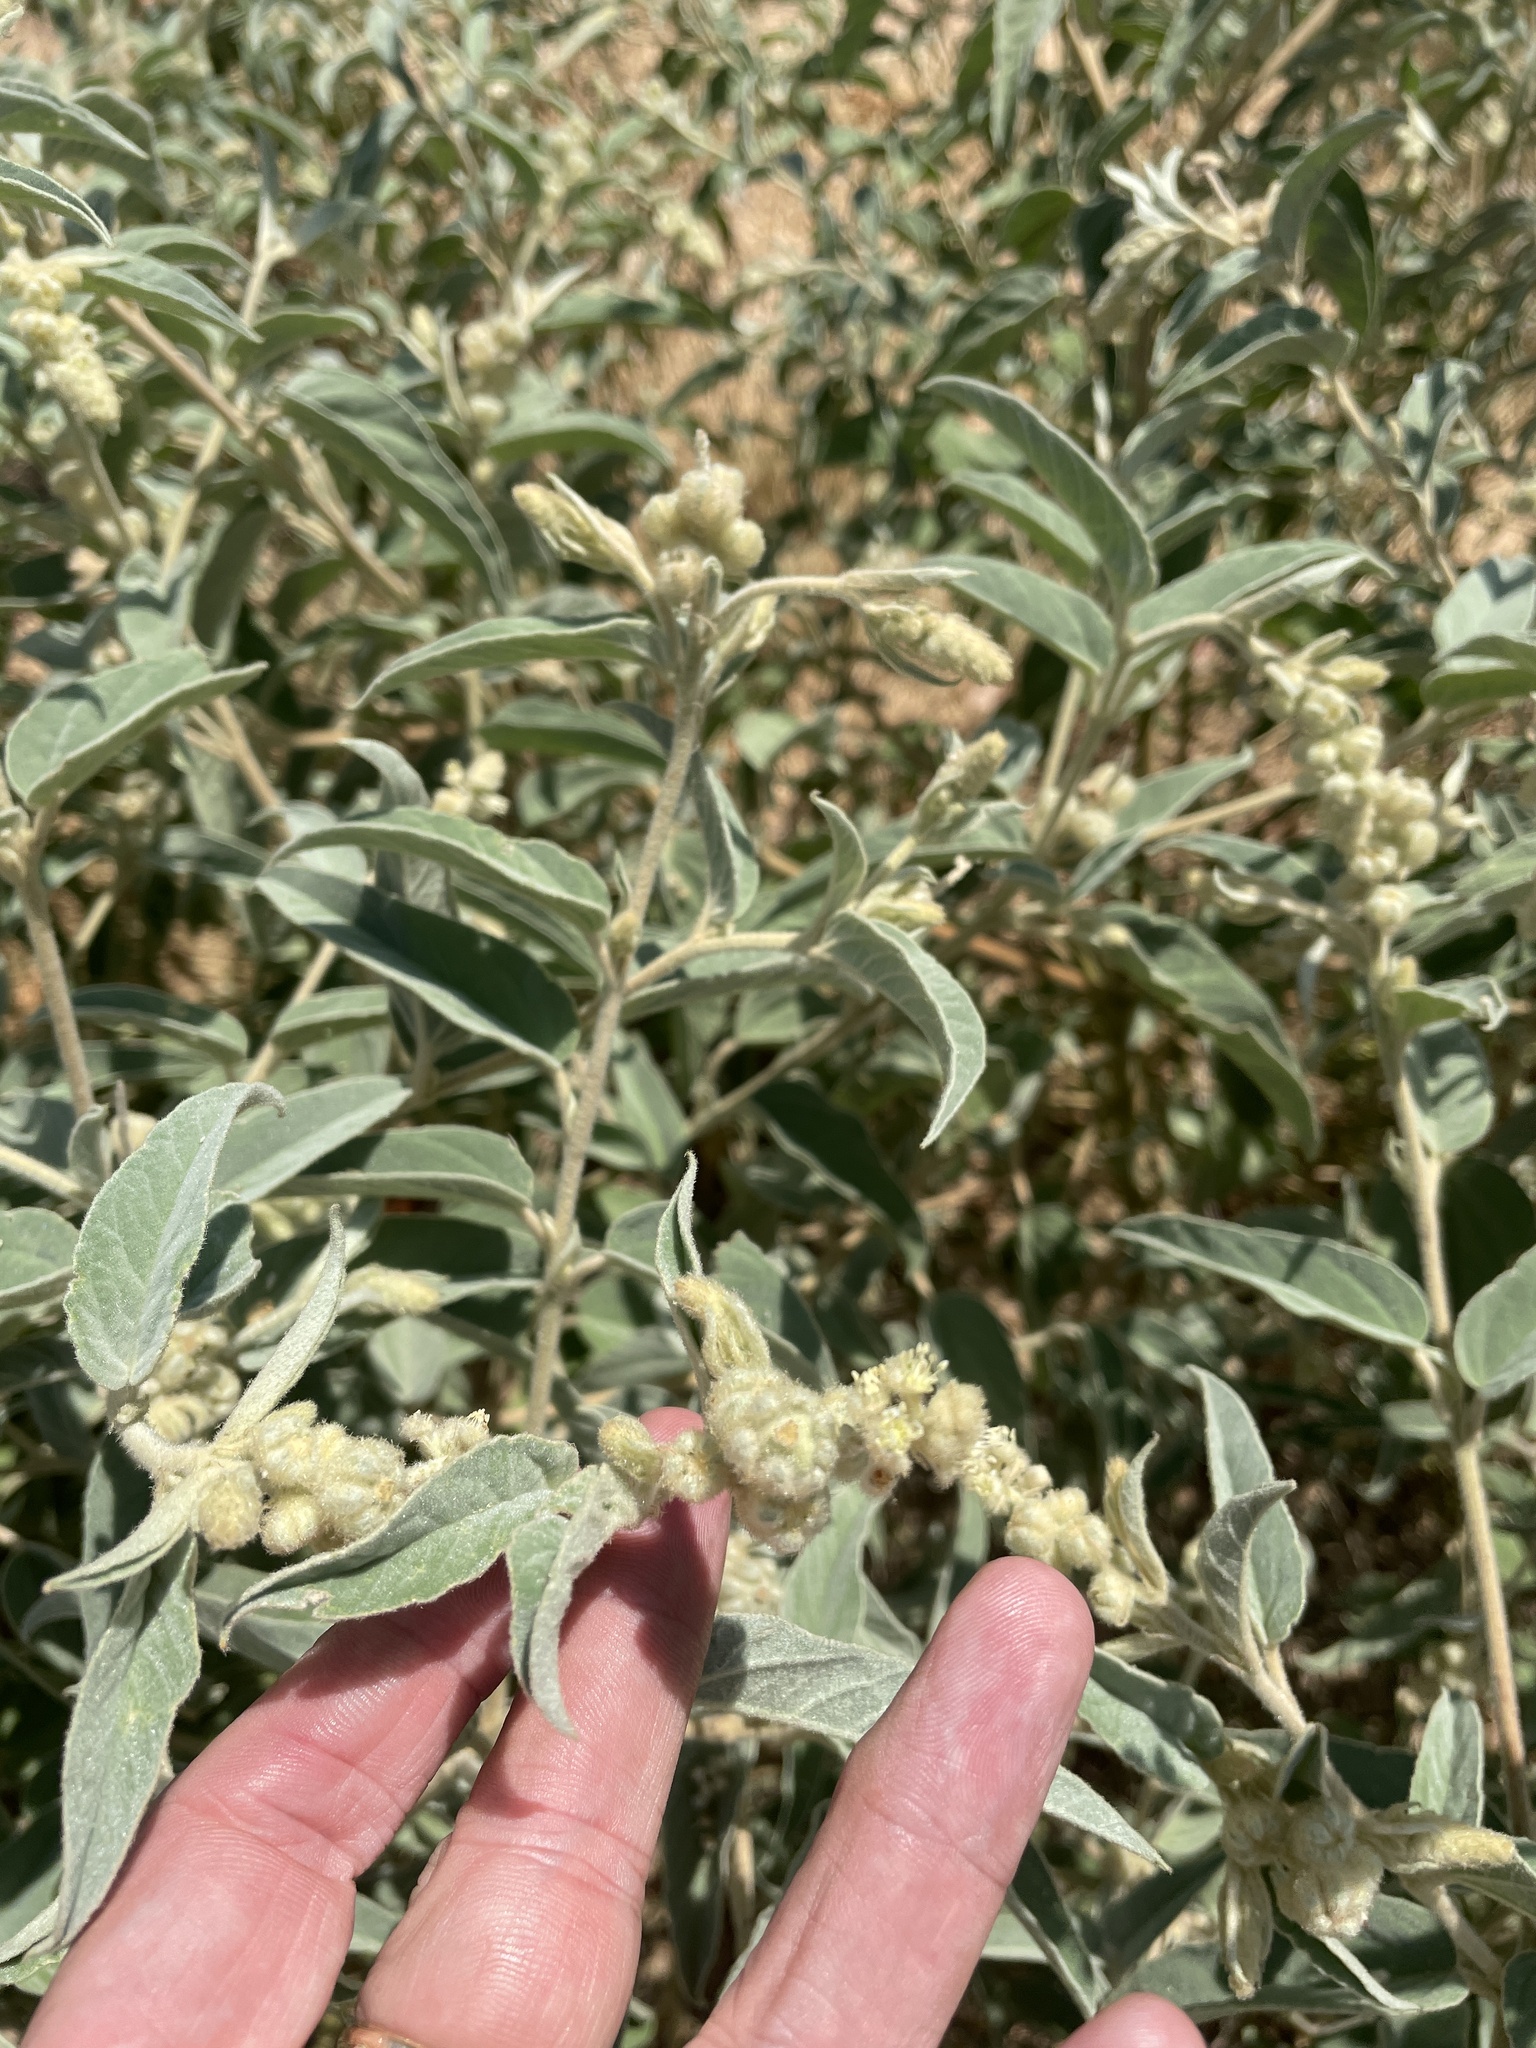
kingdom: Plantae
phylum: Tracheophyta
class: Magnoliopsida
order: Malpighiales
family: Euphorbiaceae
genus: Croton
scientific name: Croton lindheimeri
